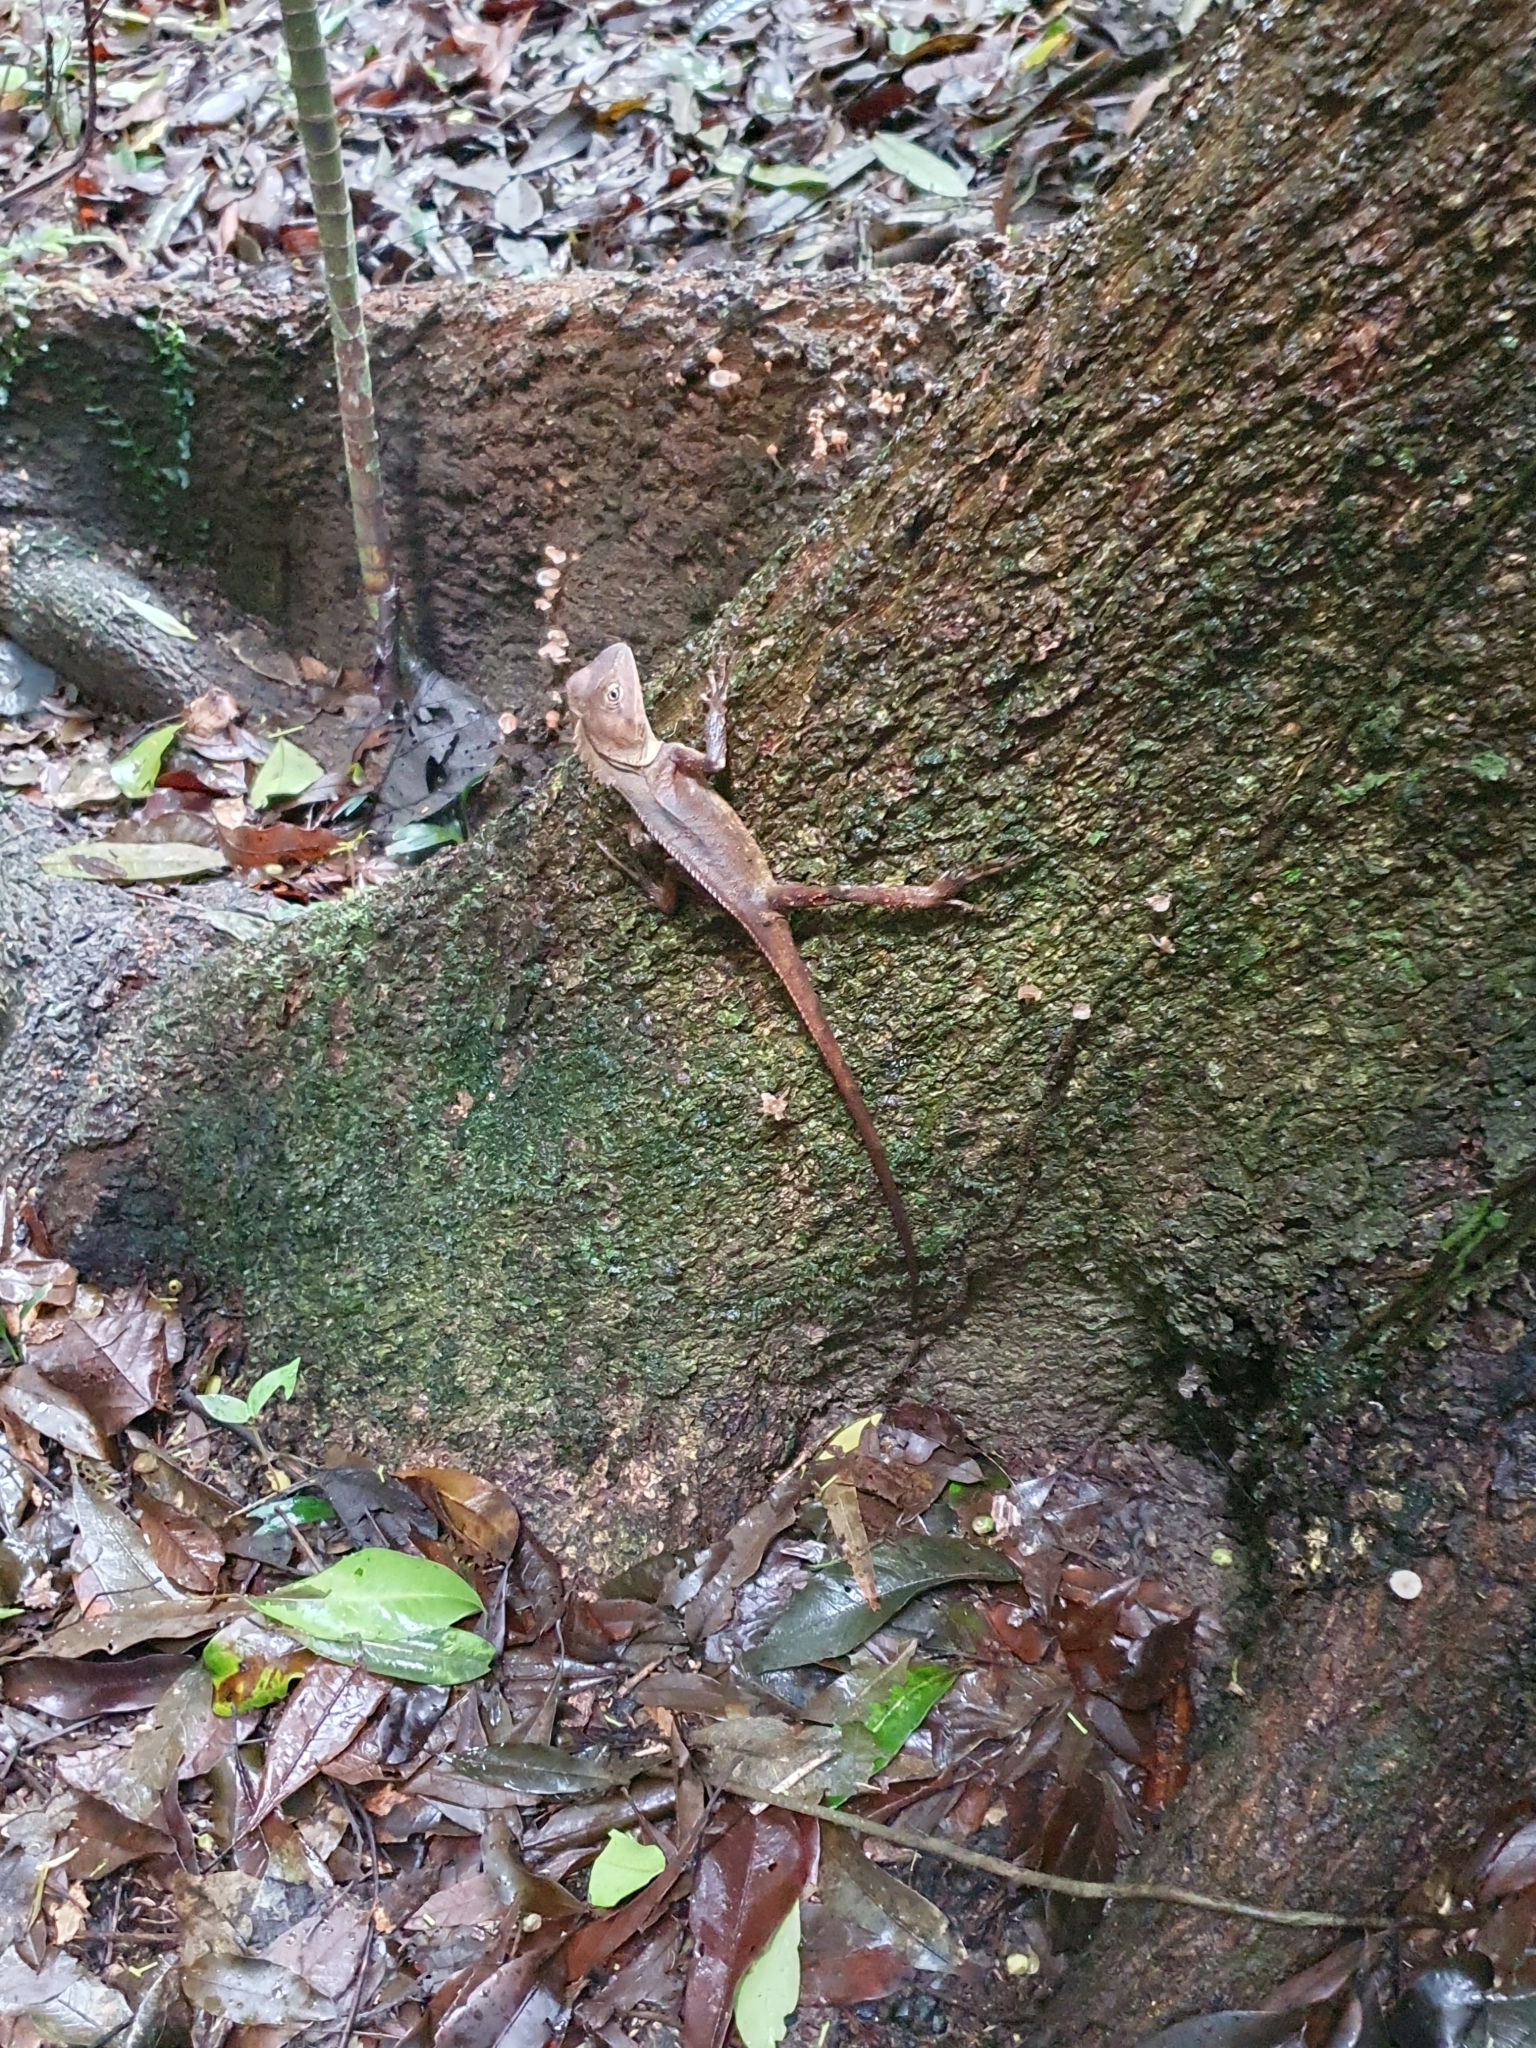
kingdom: Animalia
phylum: Chordata
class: Squamata
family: Agamidae
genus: Lophosaurus
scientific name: Lophosaurus spinipes
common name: Southern angle-headed dragon
